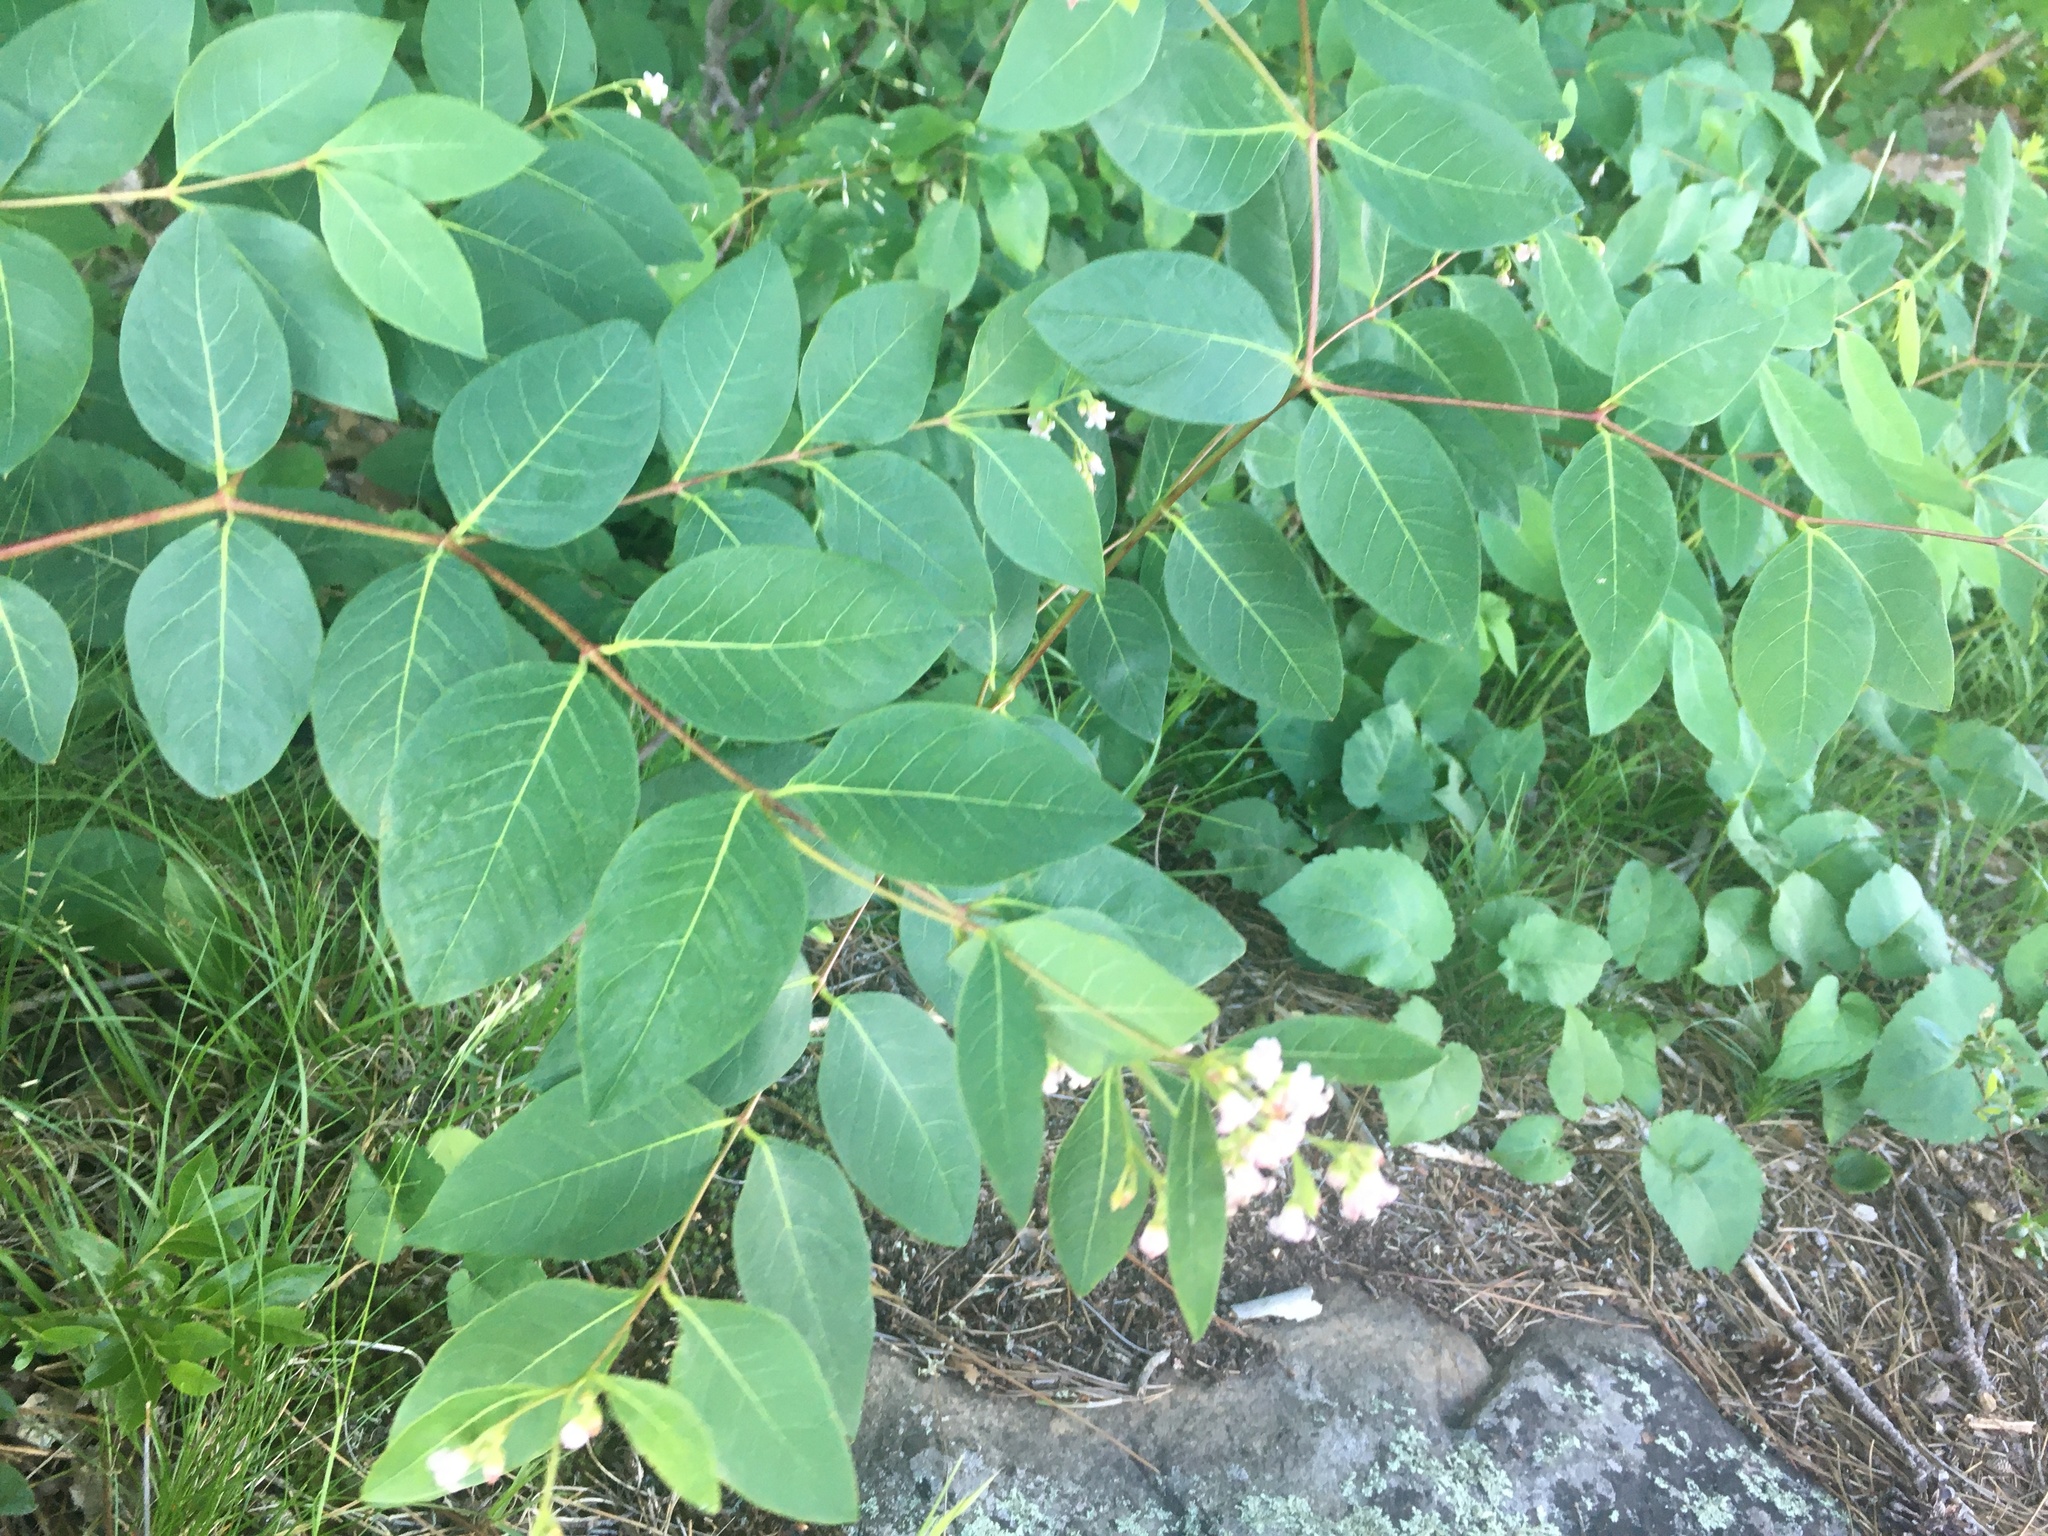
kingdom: Plantae
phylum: Tracheophyta
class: Magnoliopsida
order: Gentianales
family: Apocynaceae
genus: Apocynum
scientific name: Apocynum androsaemifolium
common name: Spreading dogbane
